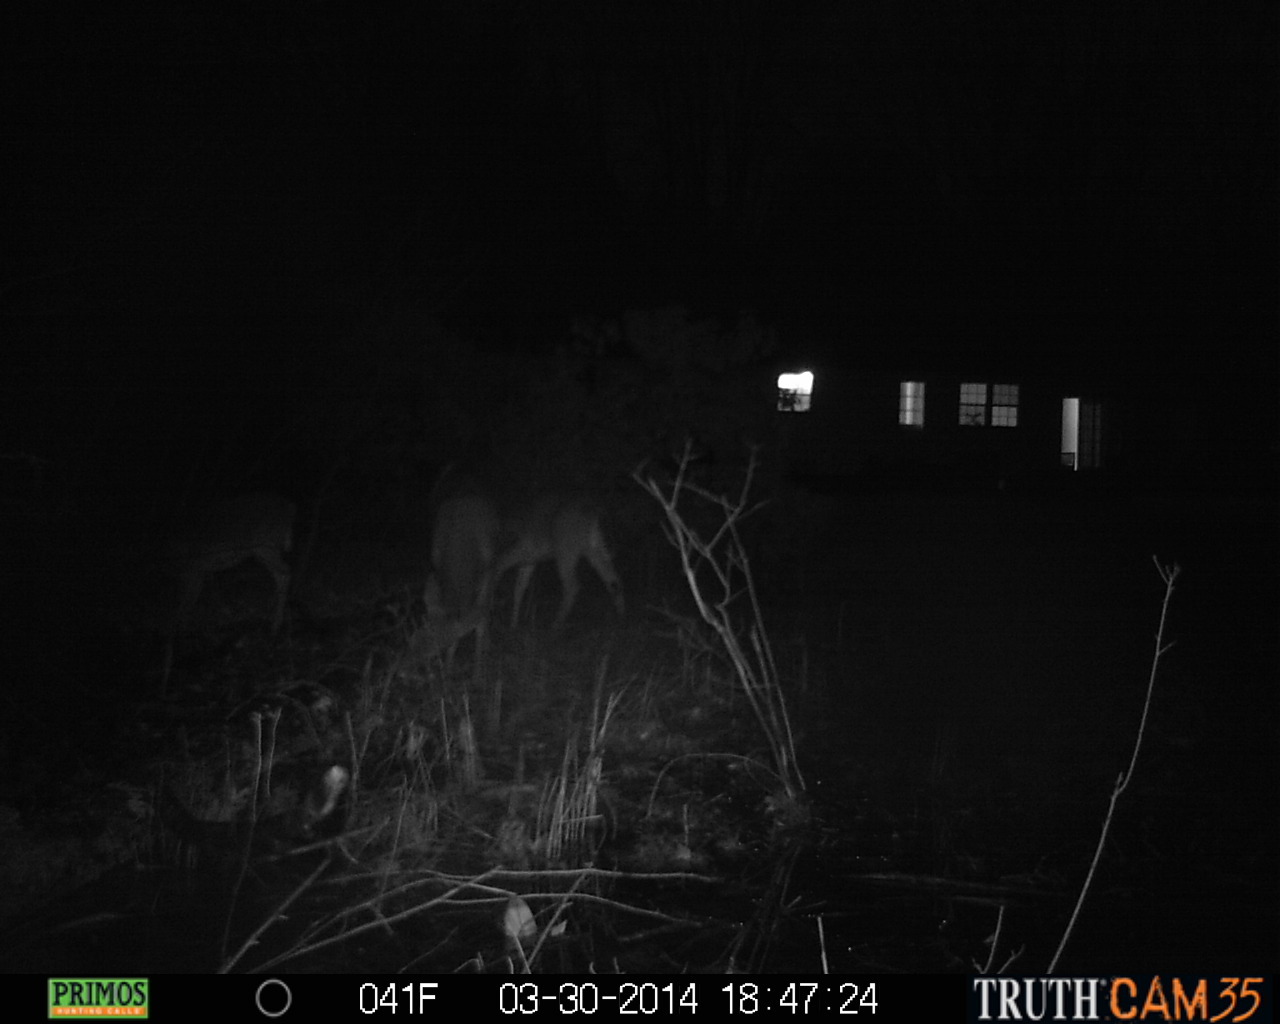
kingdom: Animalia
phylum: Chordata
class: Mammalia
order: Artiodactyla
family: Cervidae
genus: Odocoileus
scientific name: Odocoileus virginianus
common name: White-tailed deer
